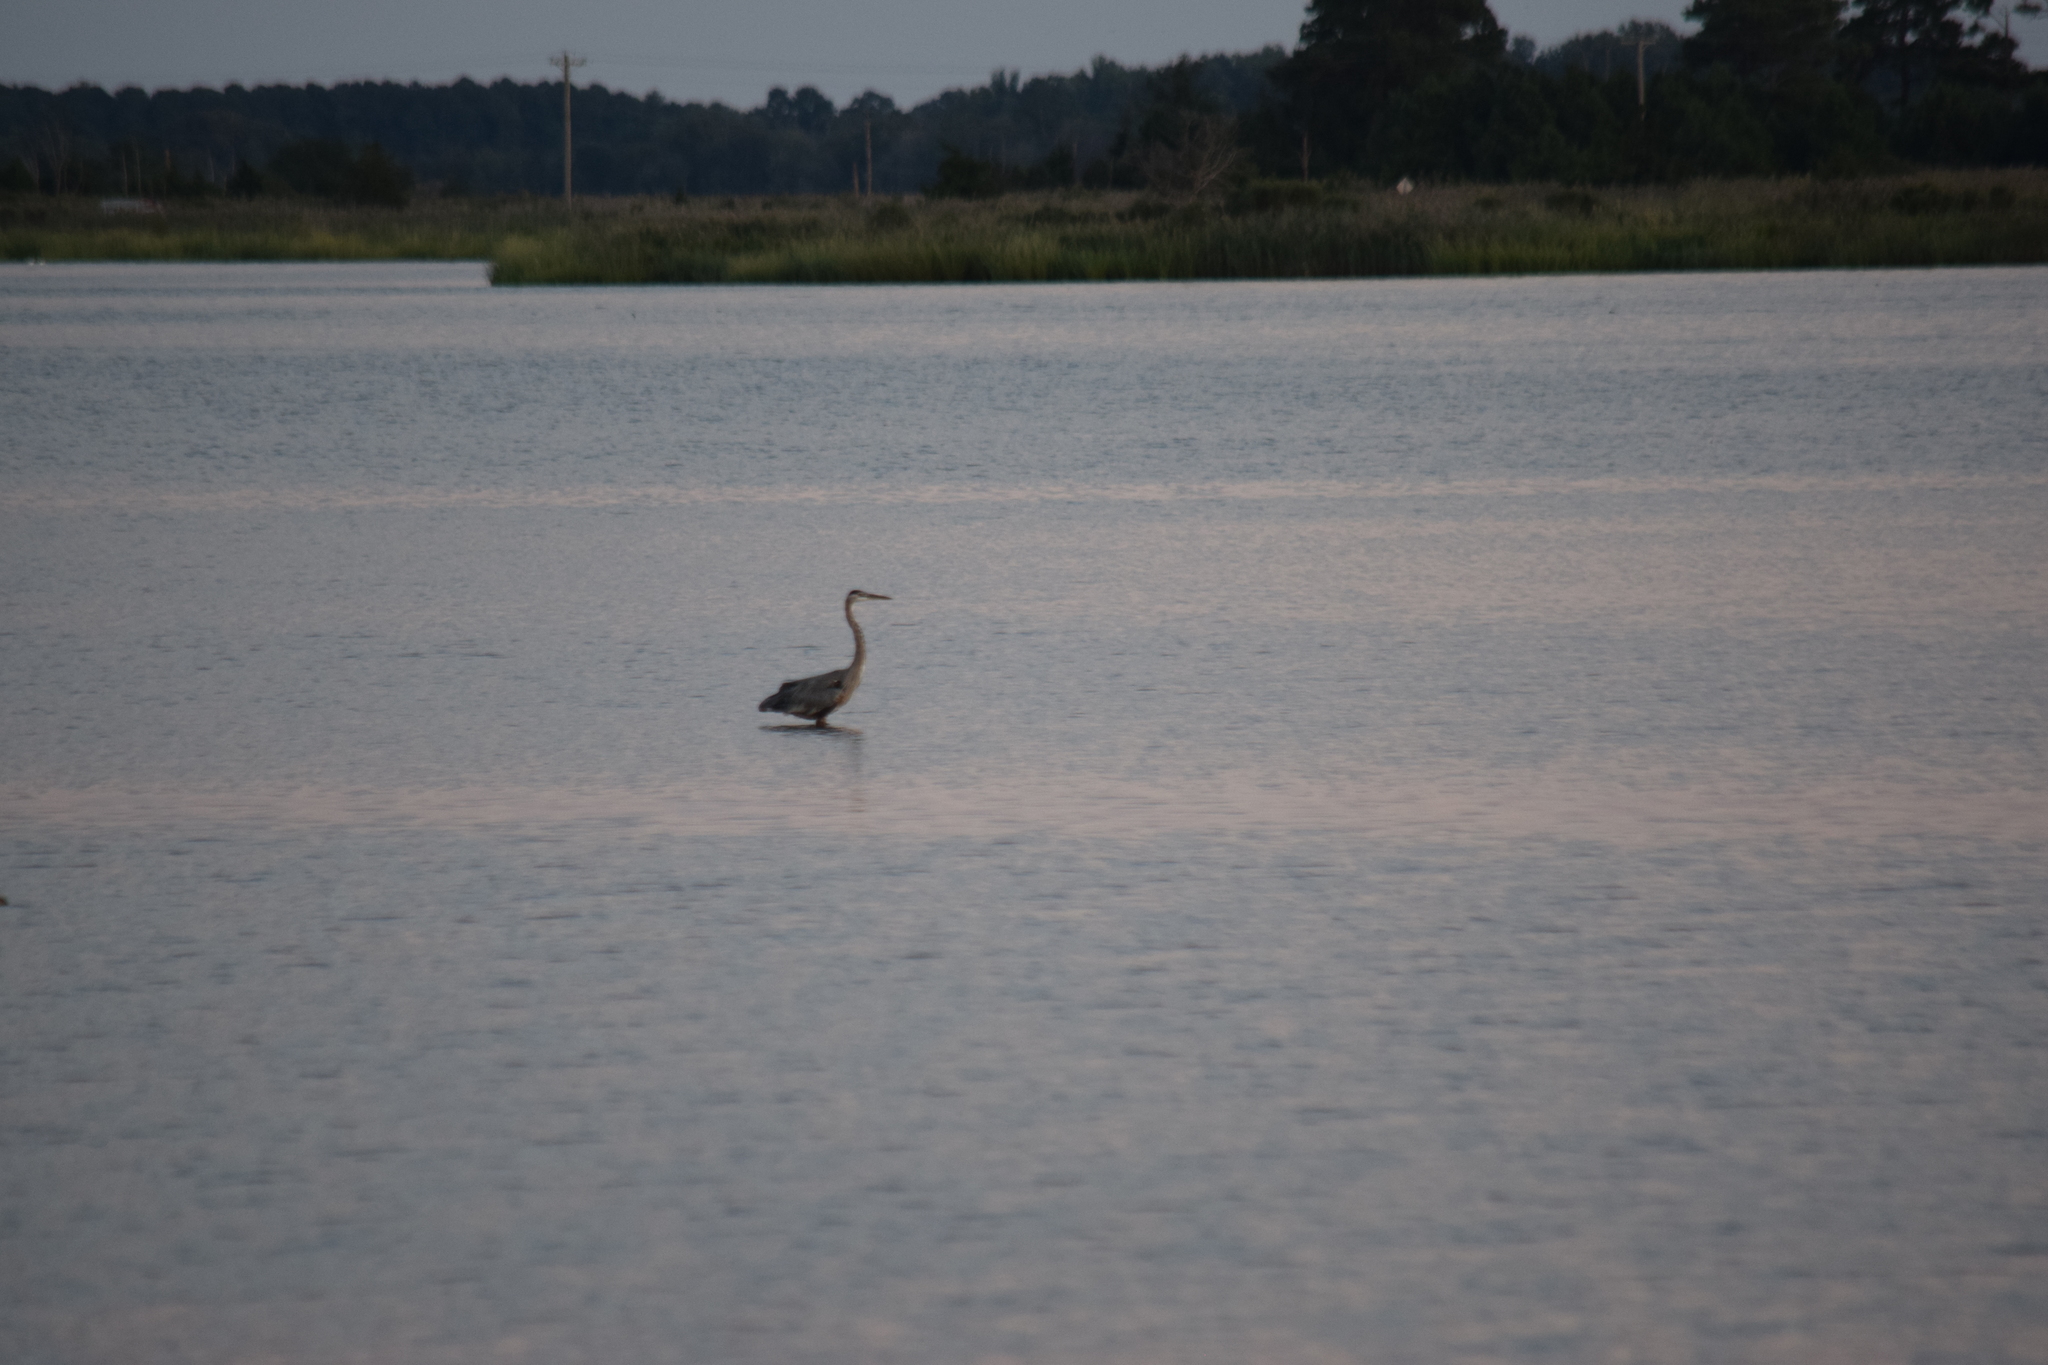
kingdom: Animalia
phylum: Chordata
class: Aves
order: Pelecaniformes
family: Ardeidae
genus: Ardea
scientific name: Ardea herodias
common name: Great blue heron
